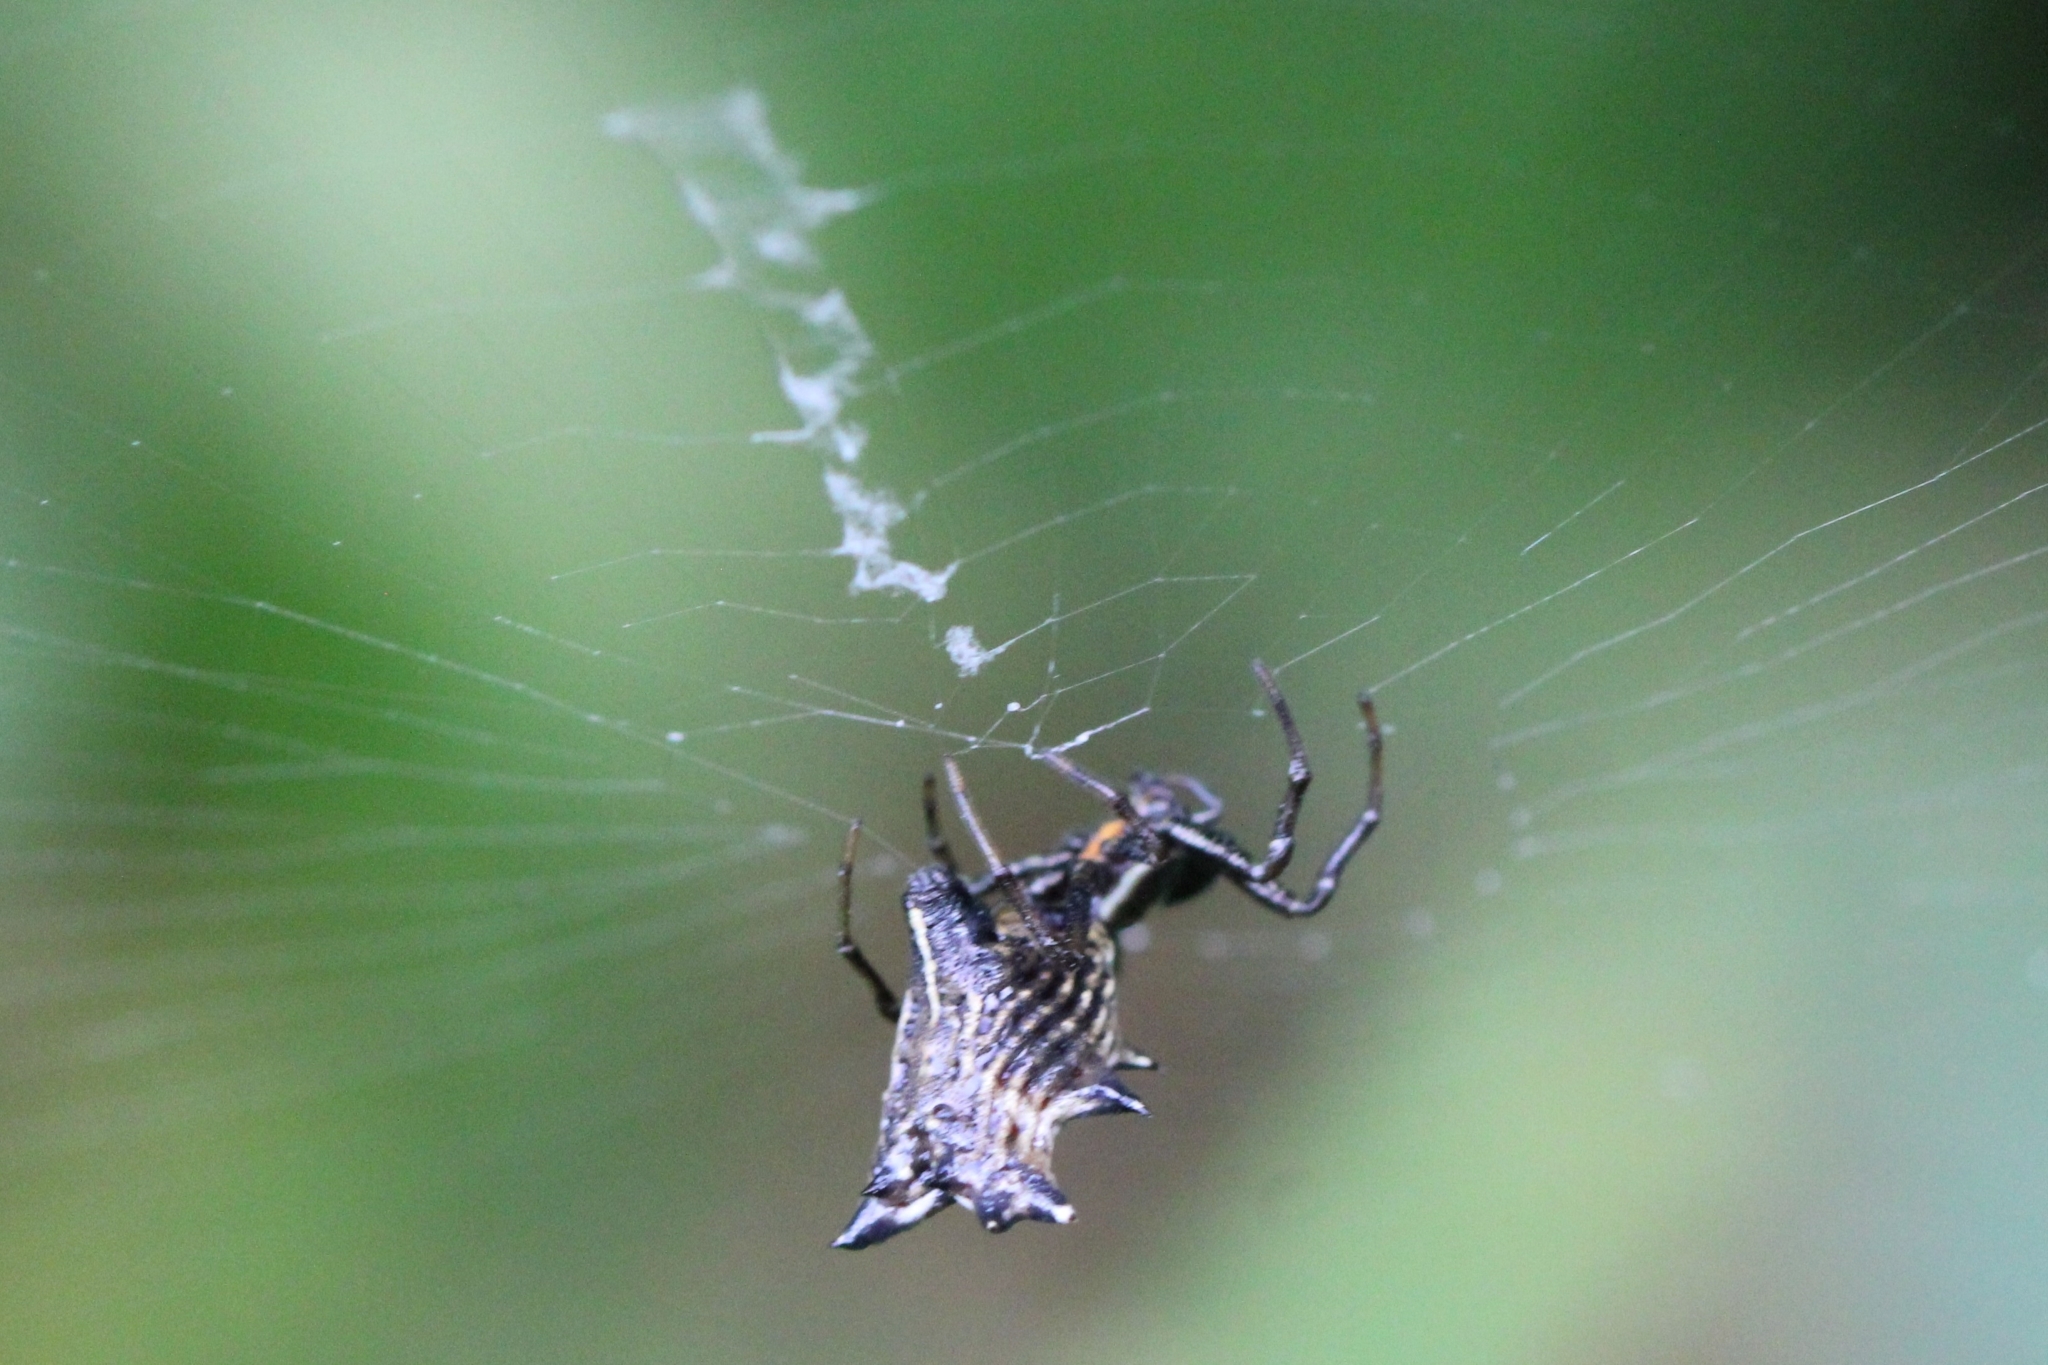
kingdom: Animalia
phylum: Arthropoda
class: Arachnida
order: Araneae
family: Araneidae
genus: Micrathena
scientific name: Micrathena gracilis
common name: Orb weavers
